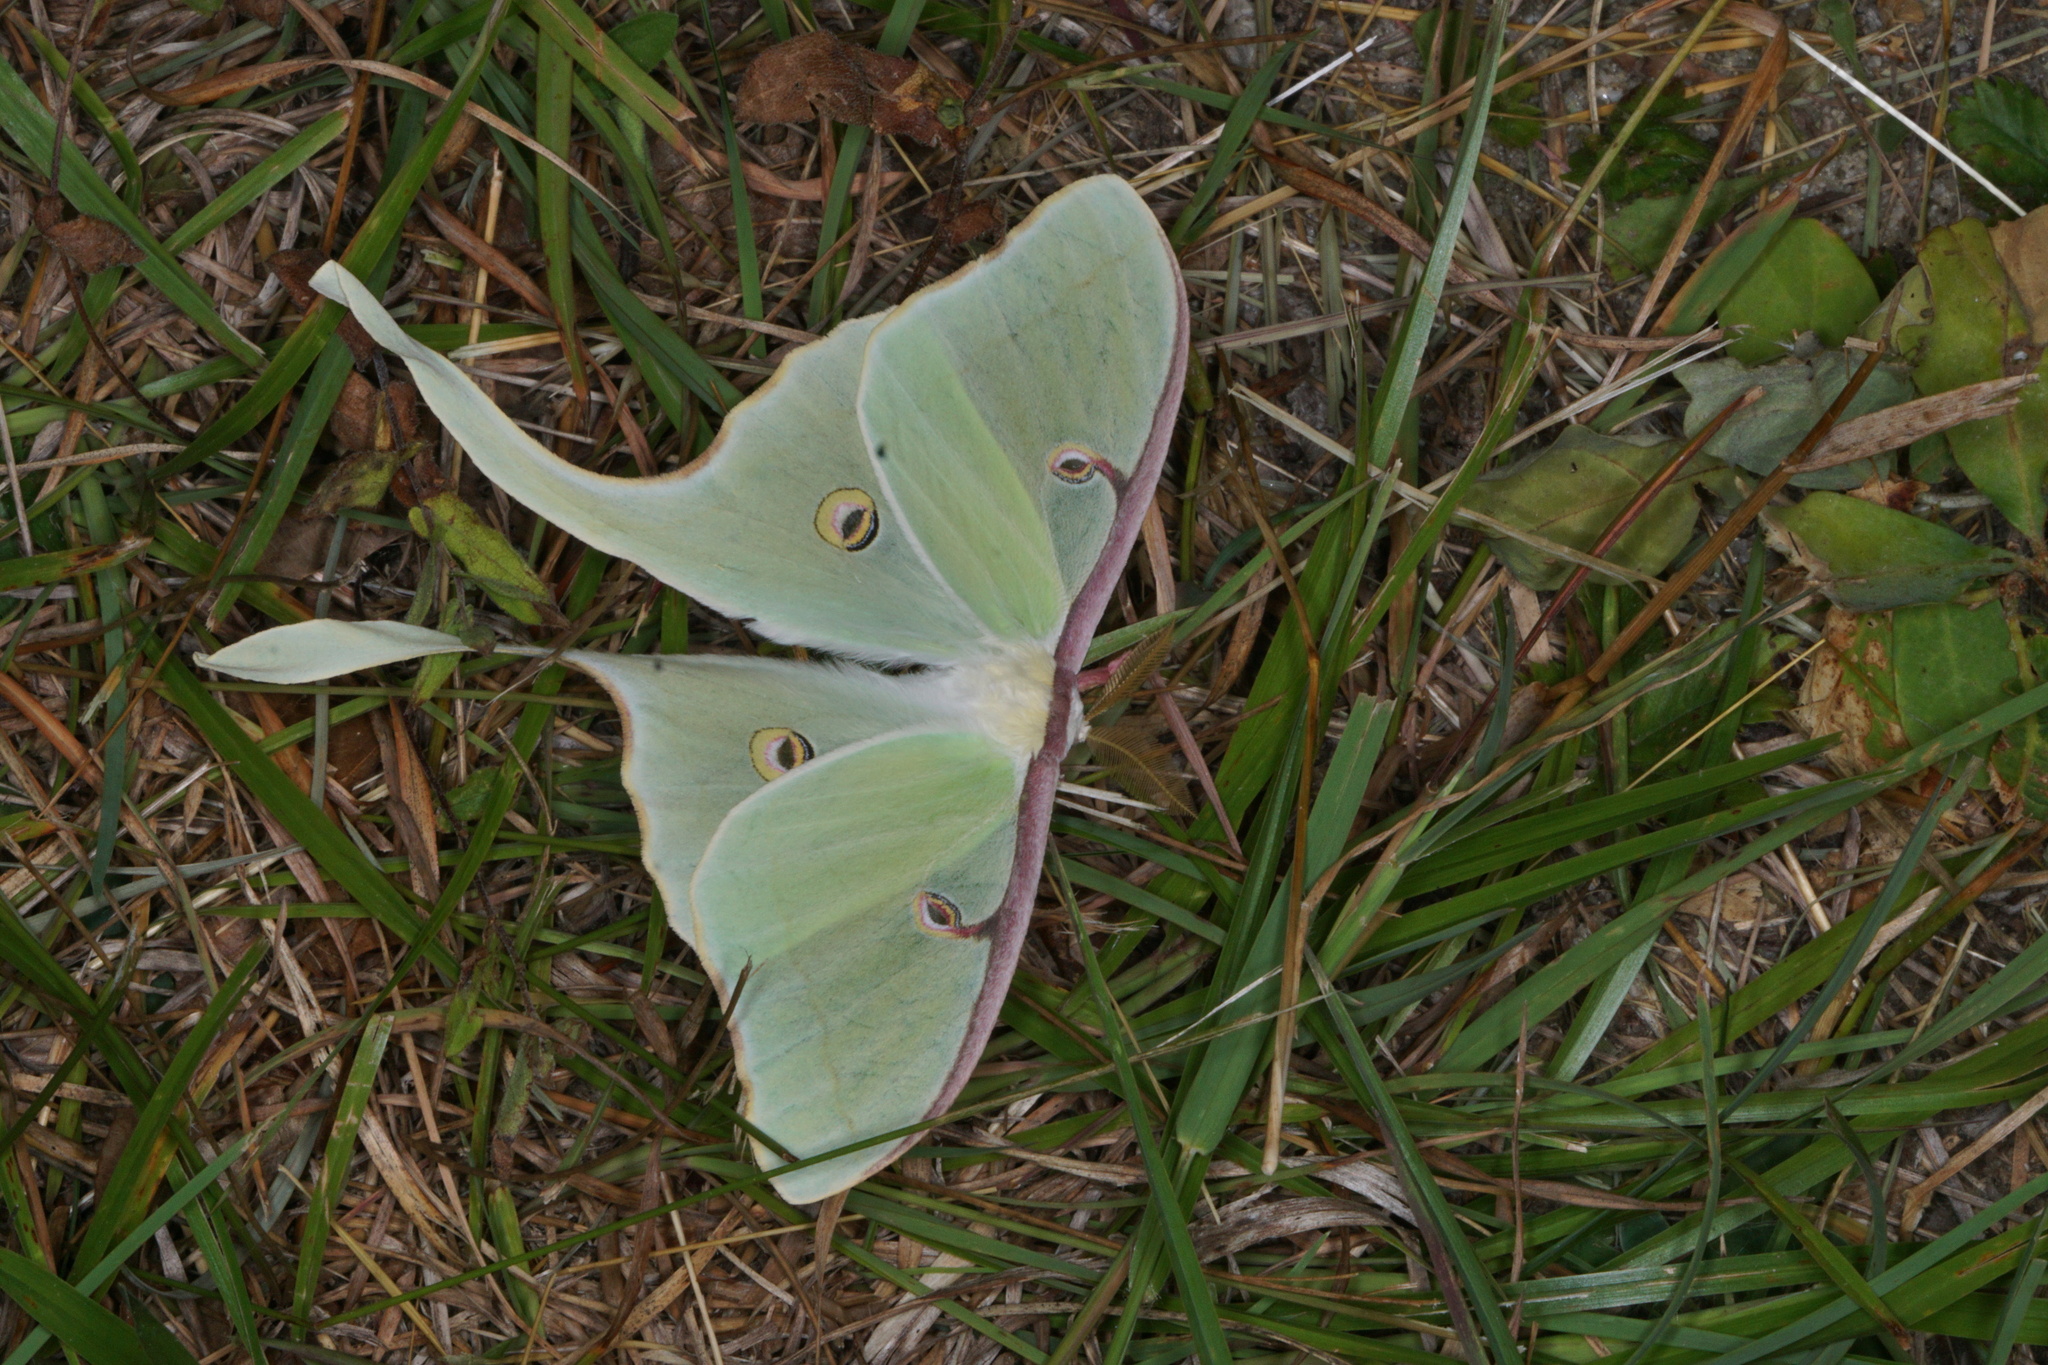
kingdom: Animalia
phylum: Arthropoda
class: Insecta
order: Lepidoptera
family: Saturniidae
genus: Actias
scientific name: Actias luna
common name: Luna moth
